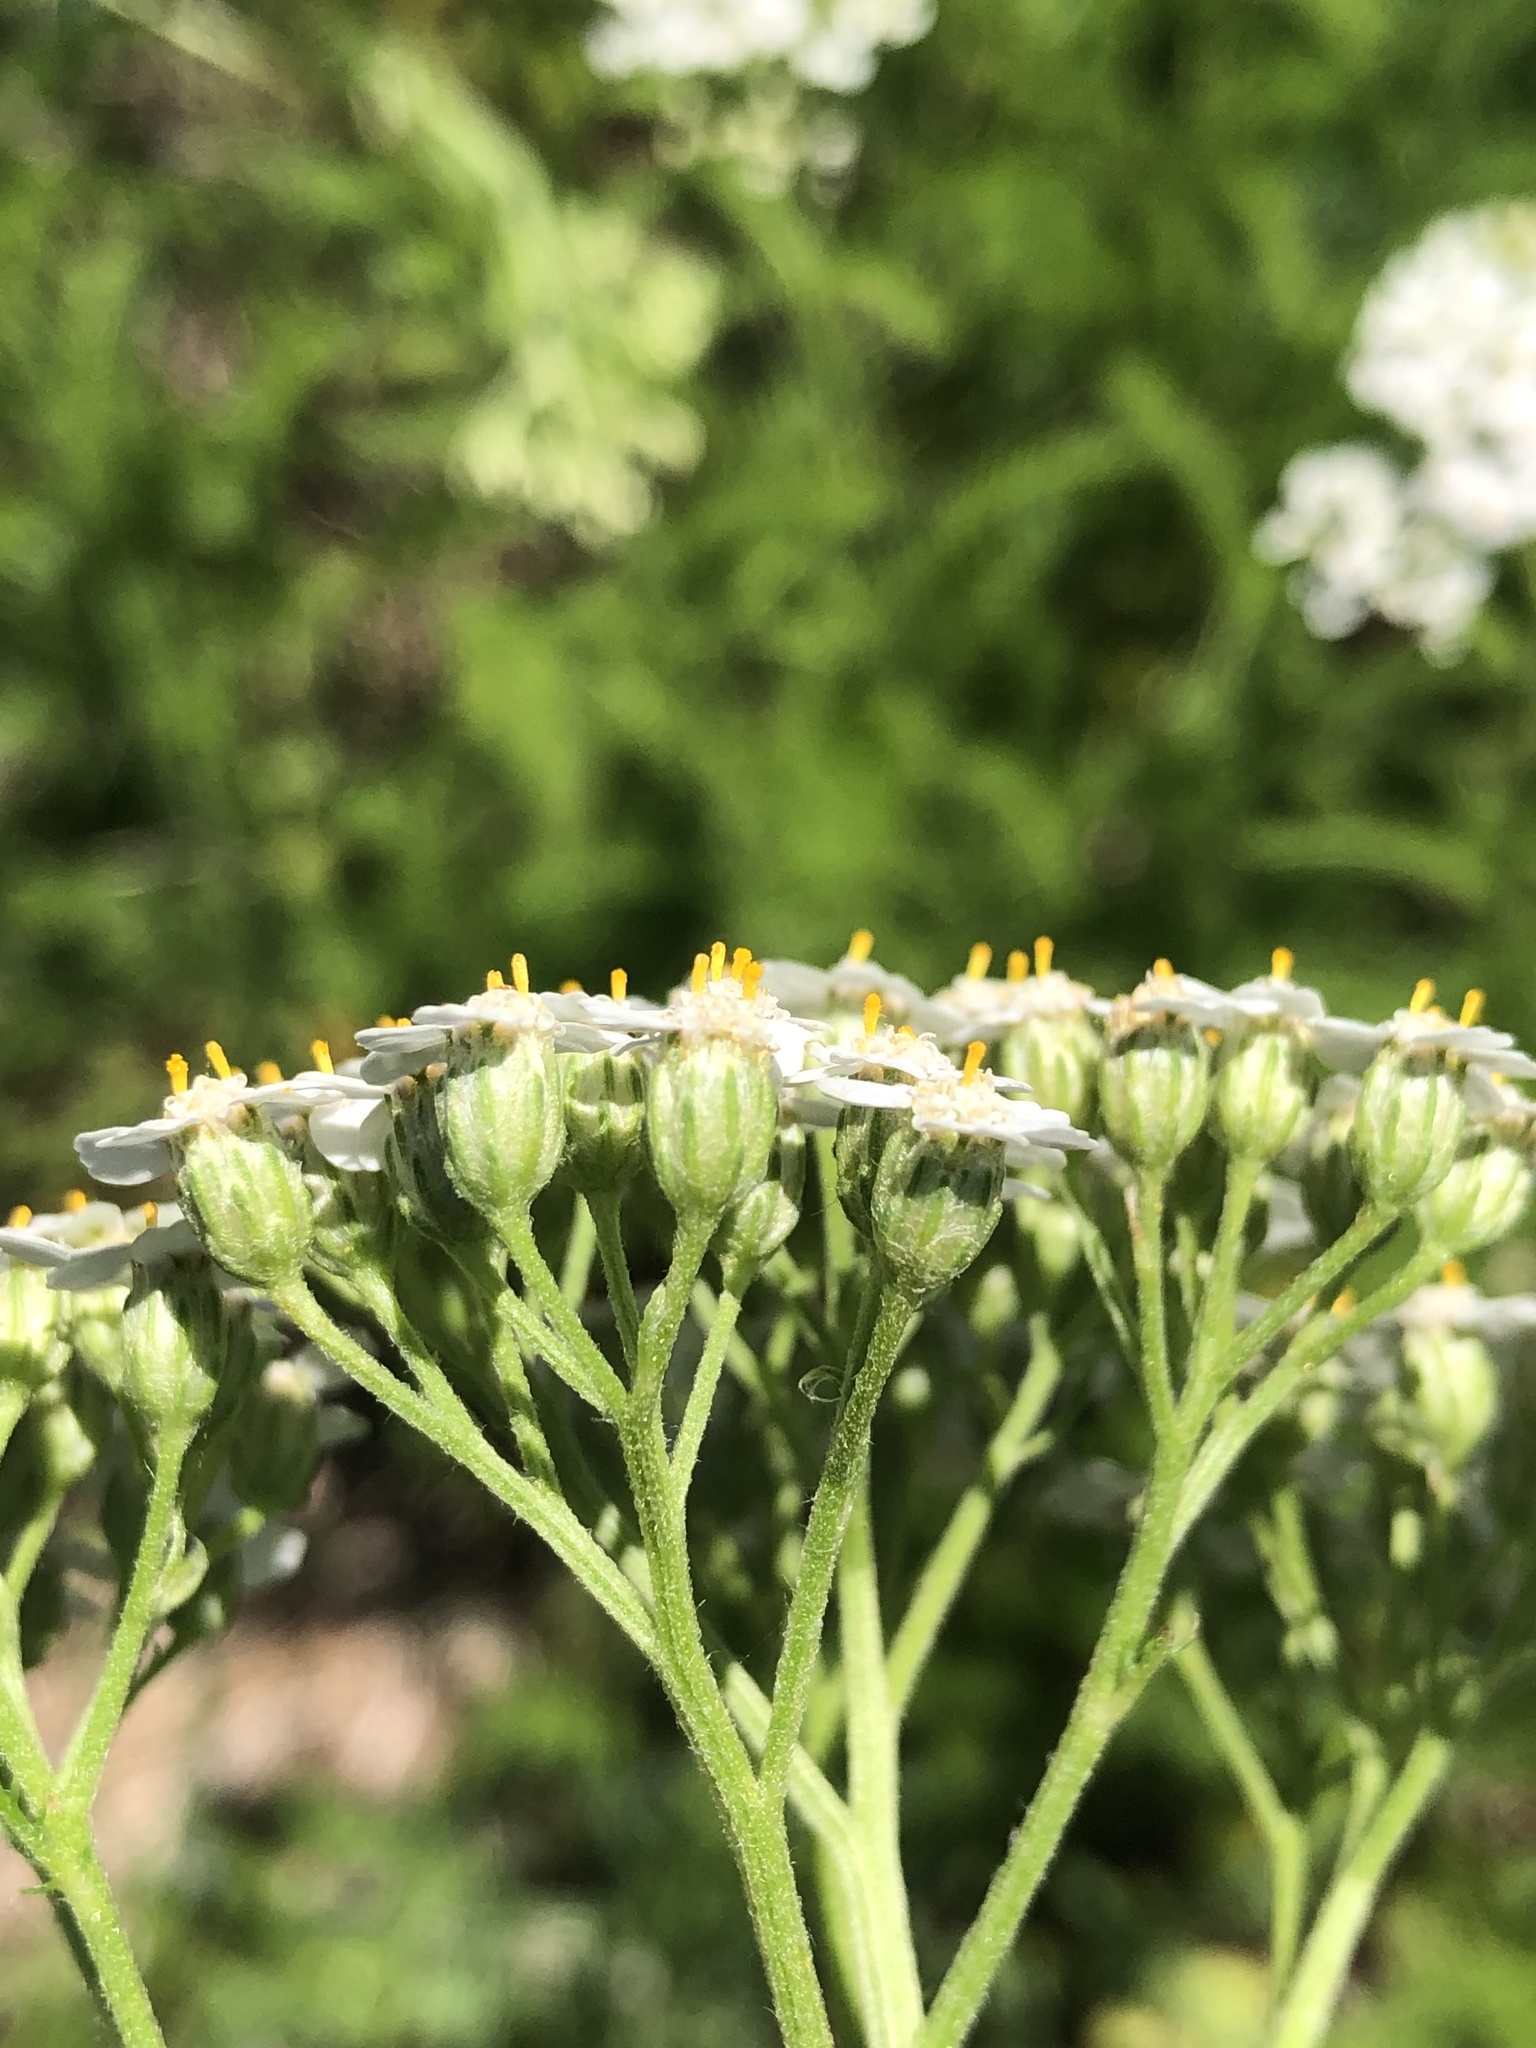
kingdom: Plantae
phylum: Tracheophyta
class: Magnoliopsida
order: Asterales
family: Asteraceae
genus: Achillea
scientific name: Achillea millefolium
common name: Yarrow
